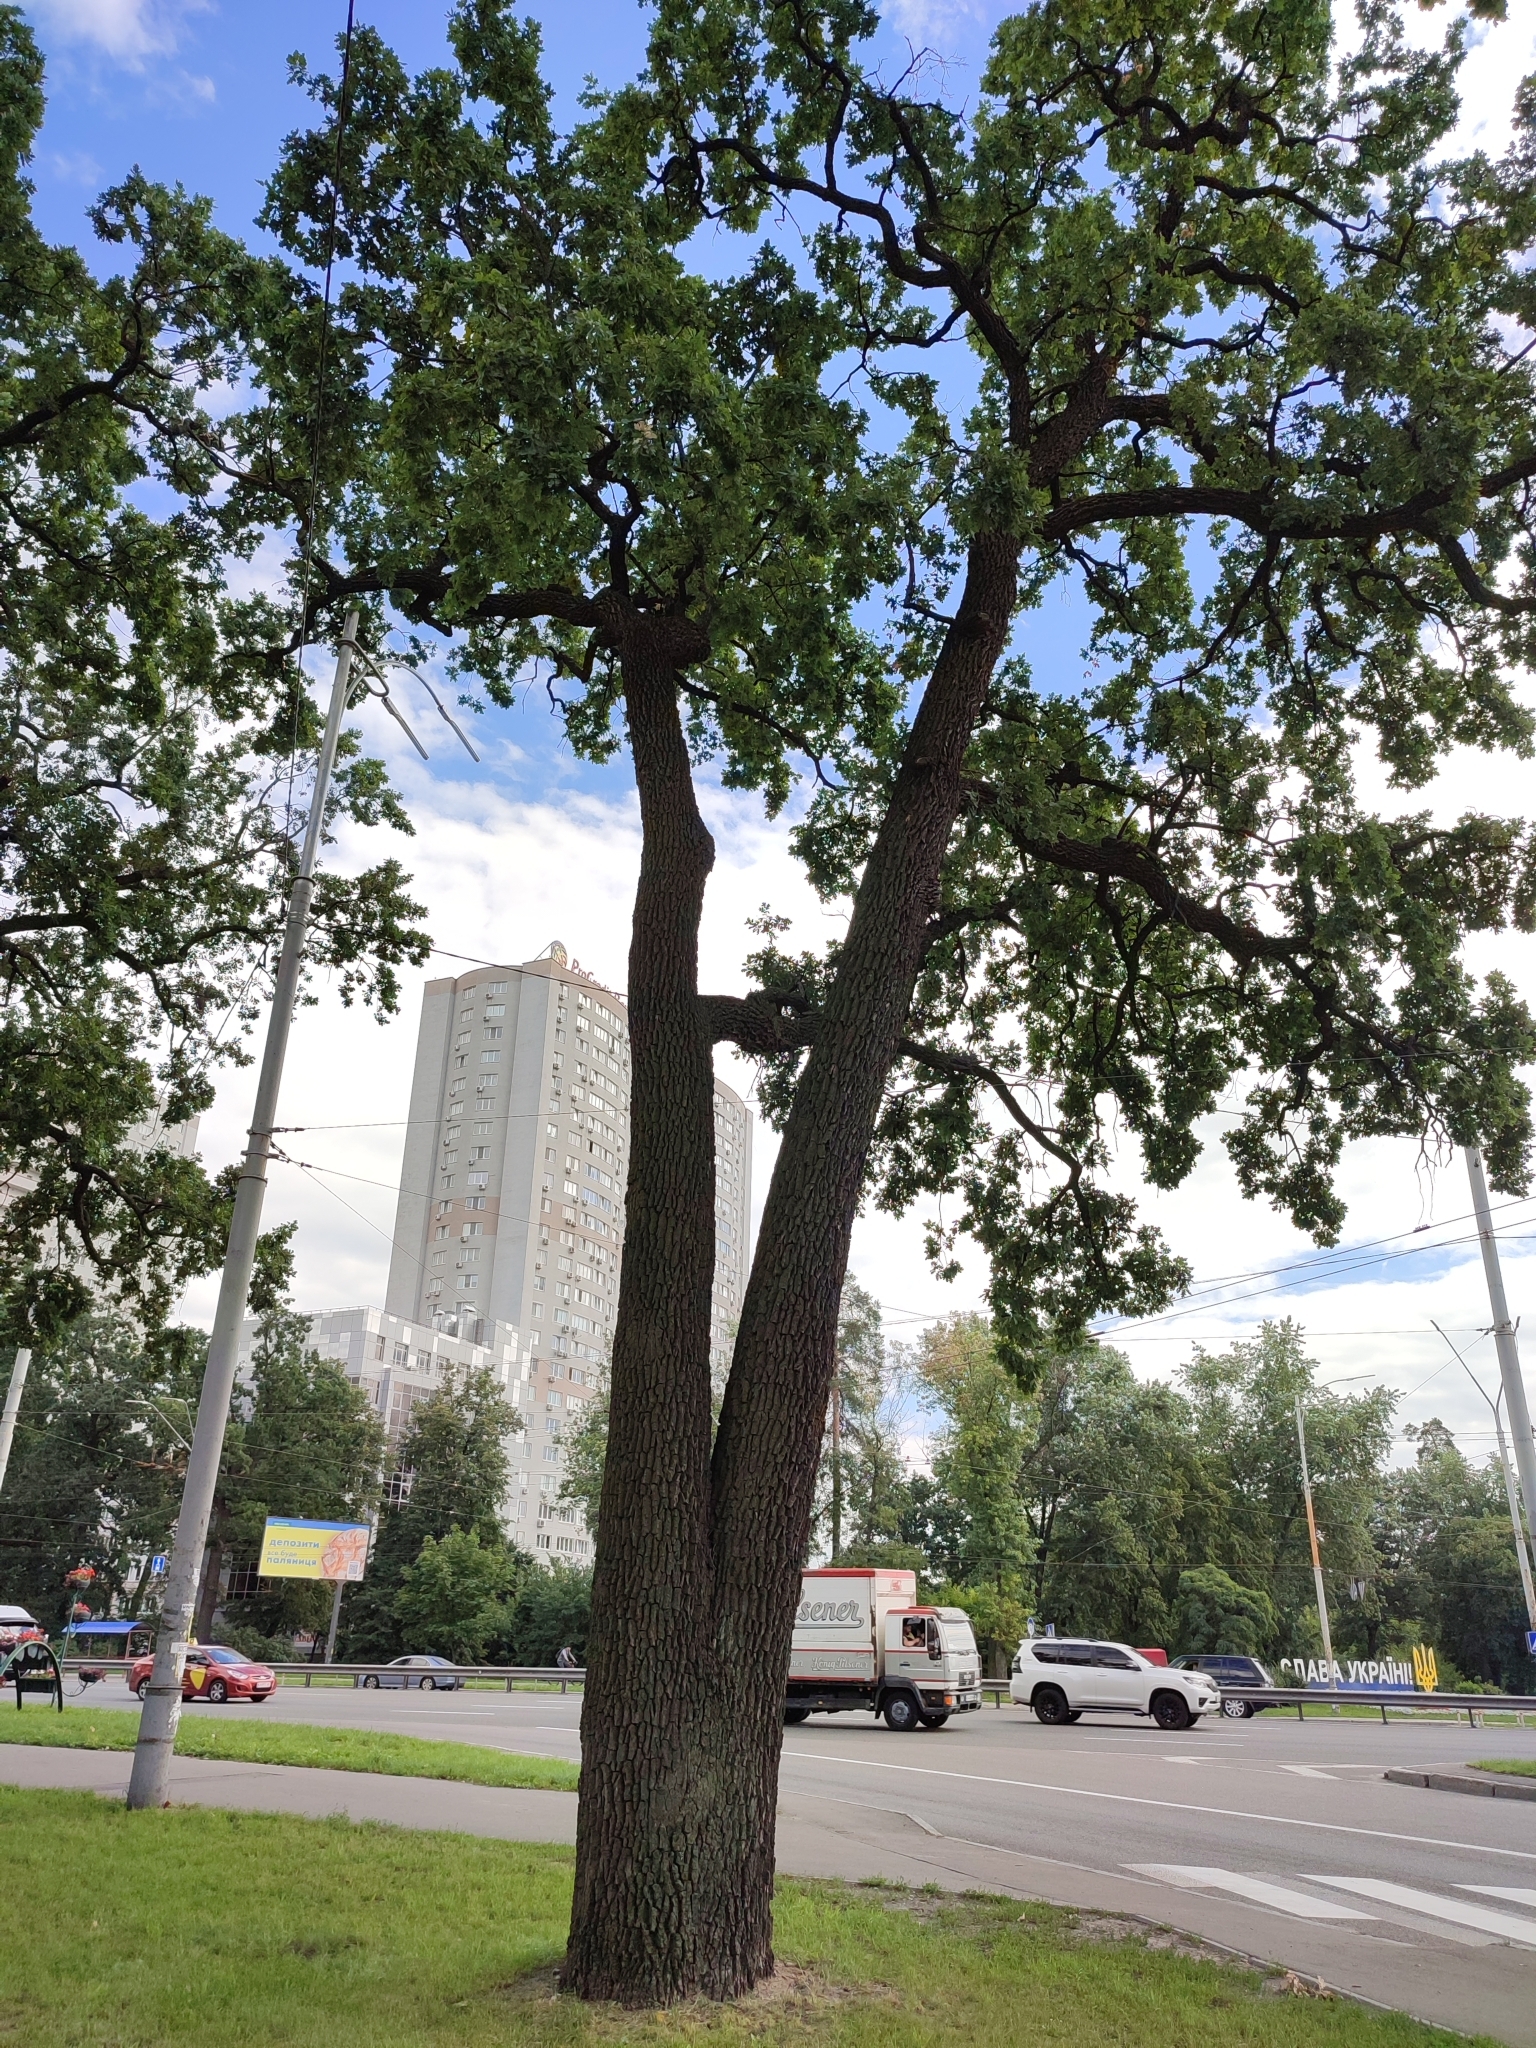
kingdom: Plantae
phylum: Tracheophyta
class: Magnoliopsida
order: Fagales
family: Fagaceae
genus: Quercus
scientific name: Quercus robur
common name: Pedunculate oak
